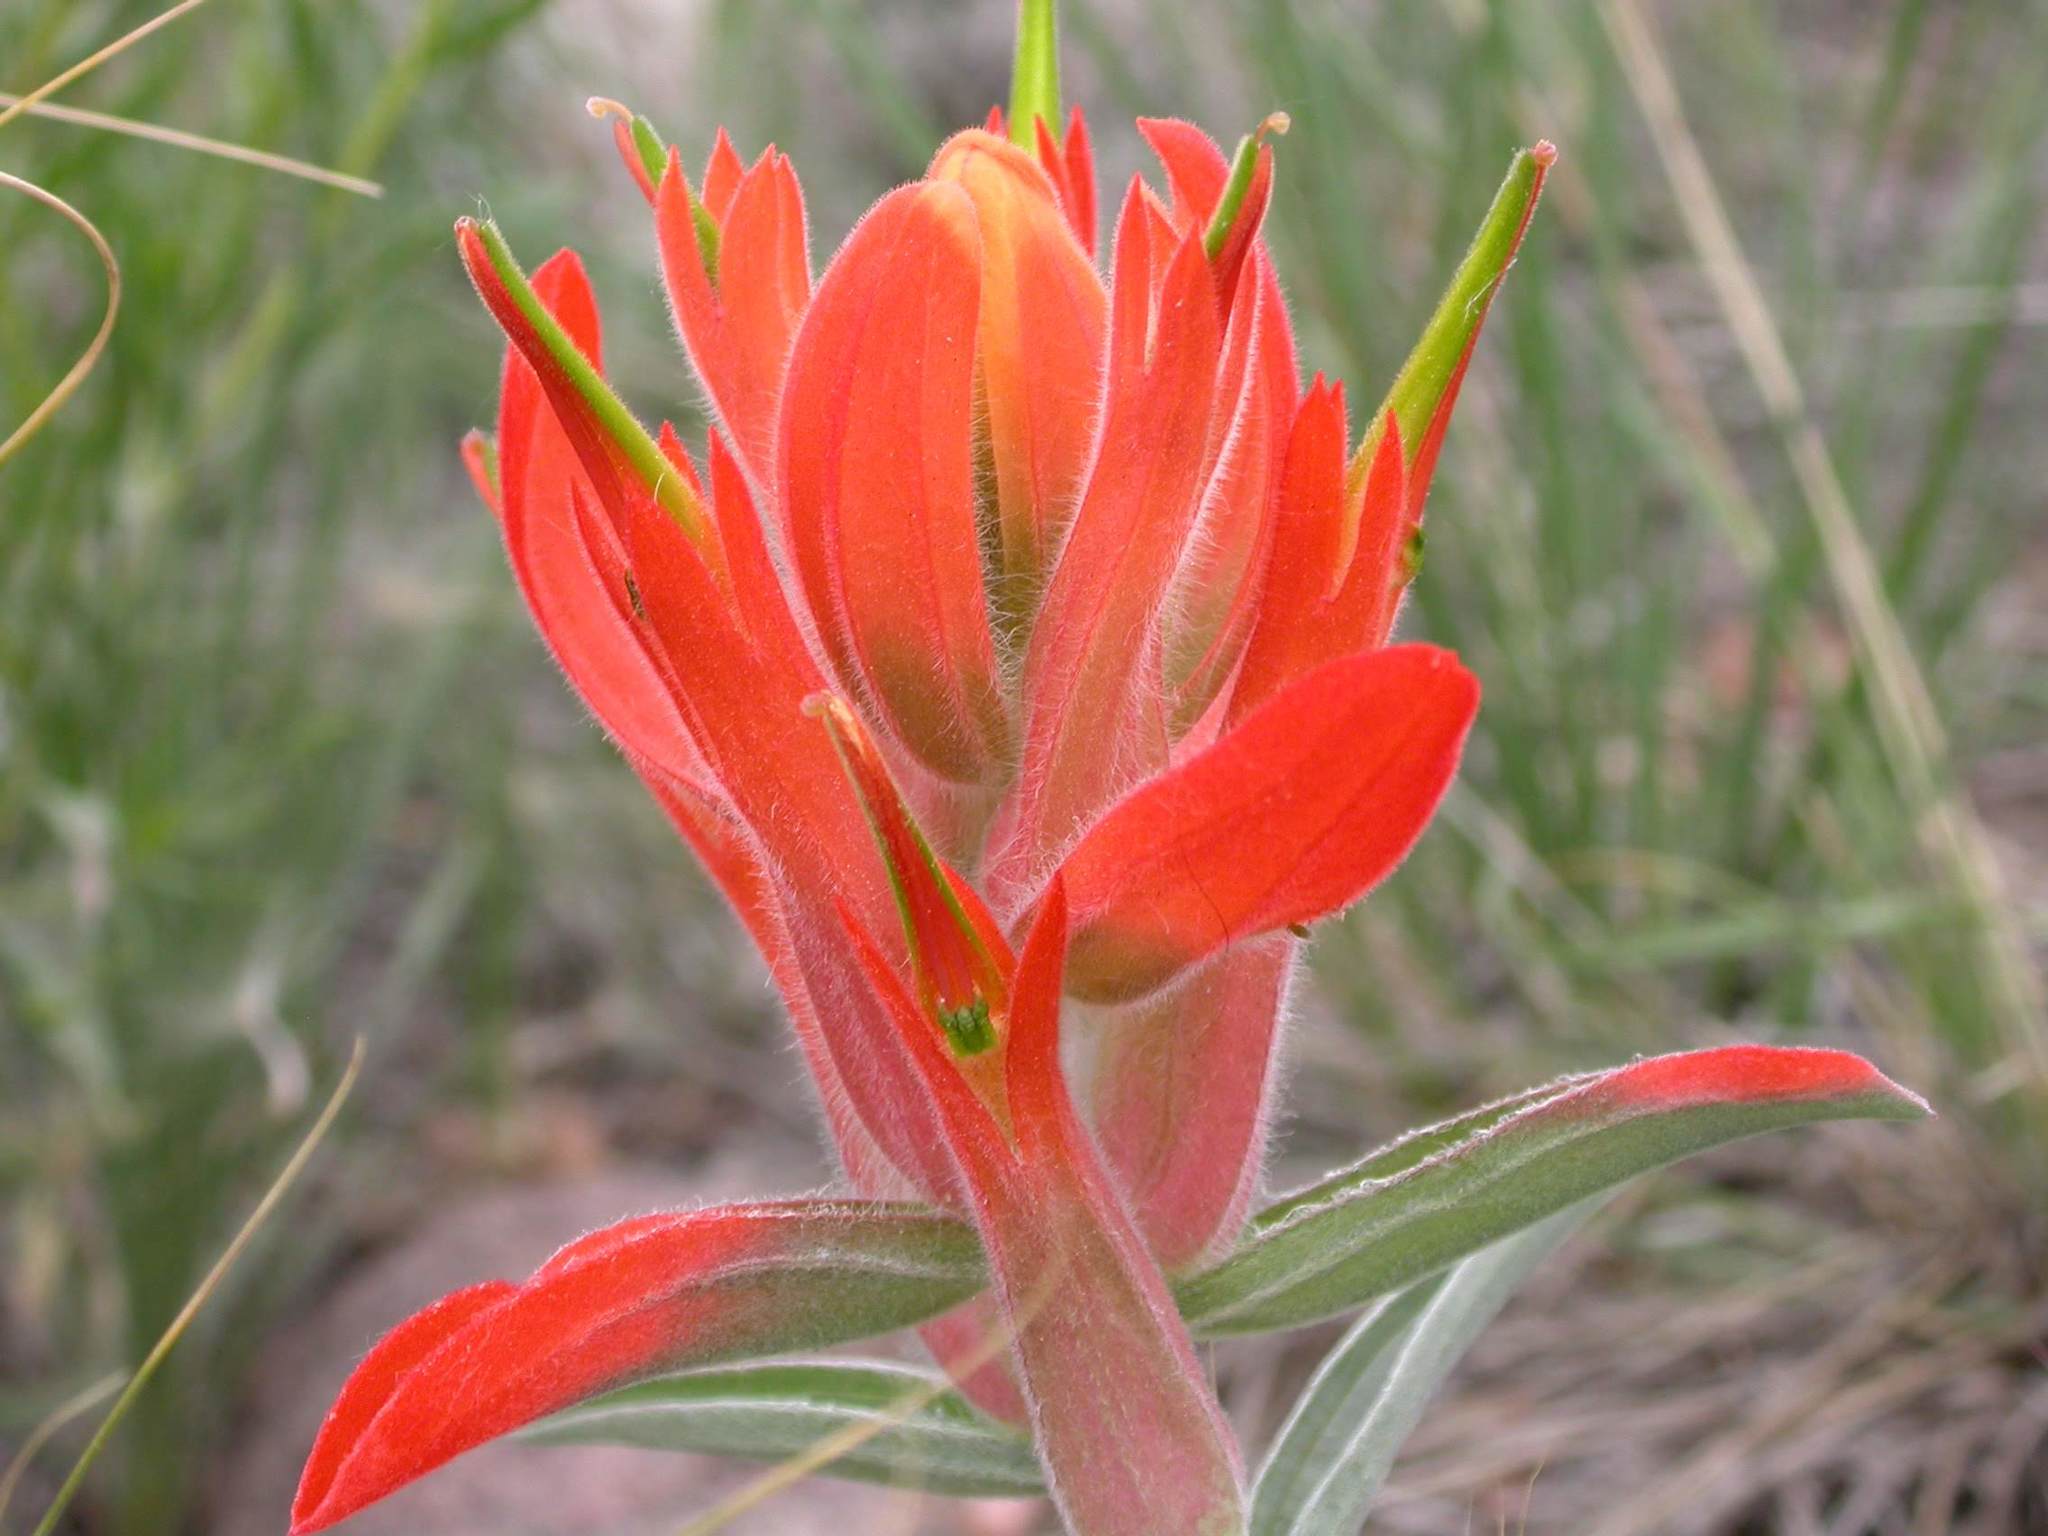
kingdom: Plantae
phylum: Tracheophyta
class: Magnoliopsida
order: Lamiales
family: Orobanchaceae
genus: Castilleja
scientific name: Castilleja integra
